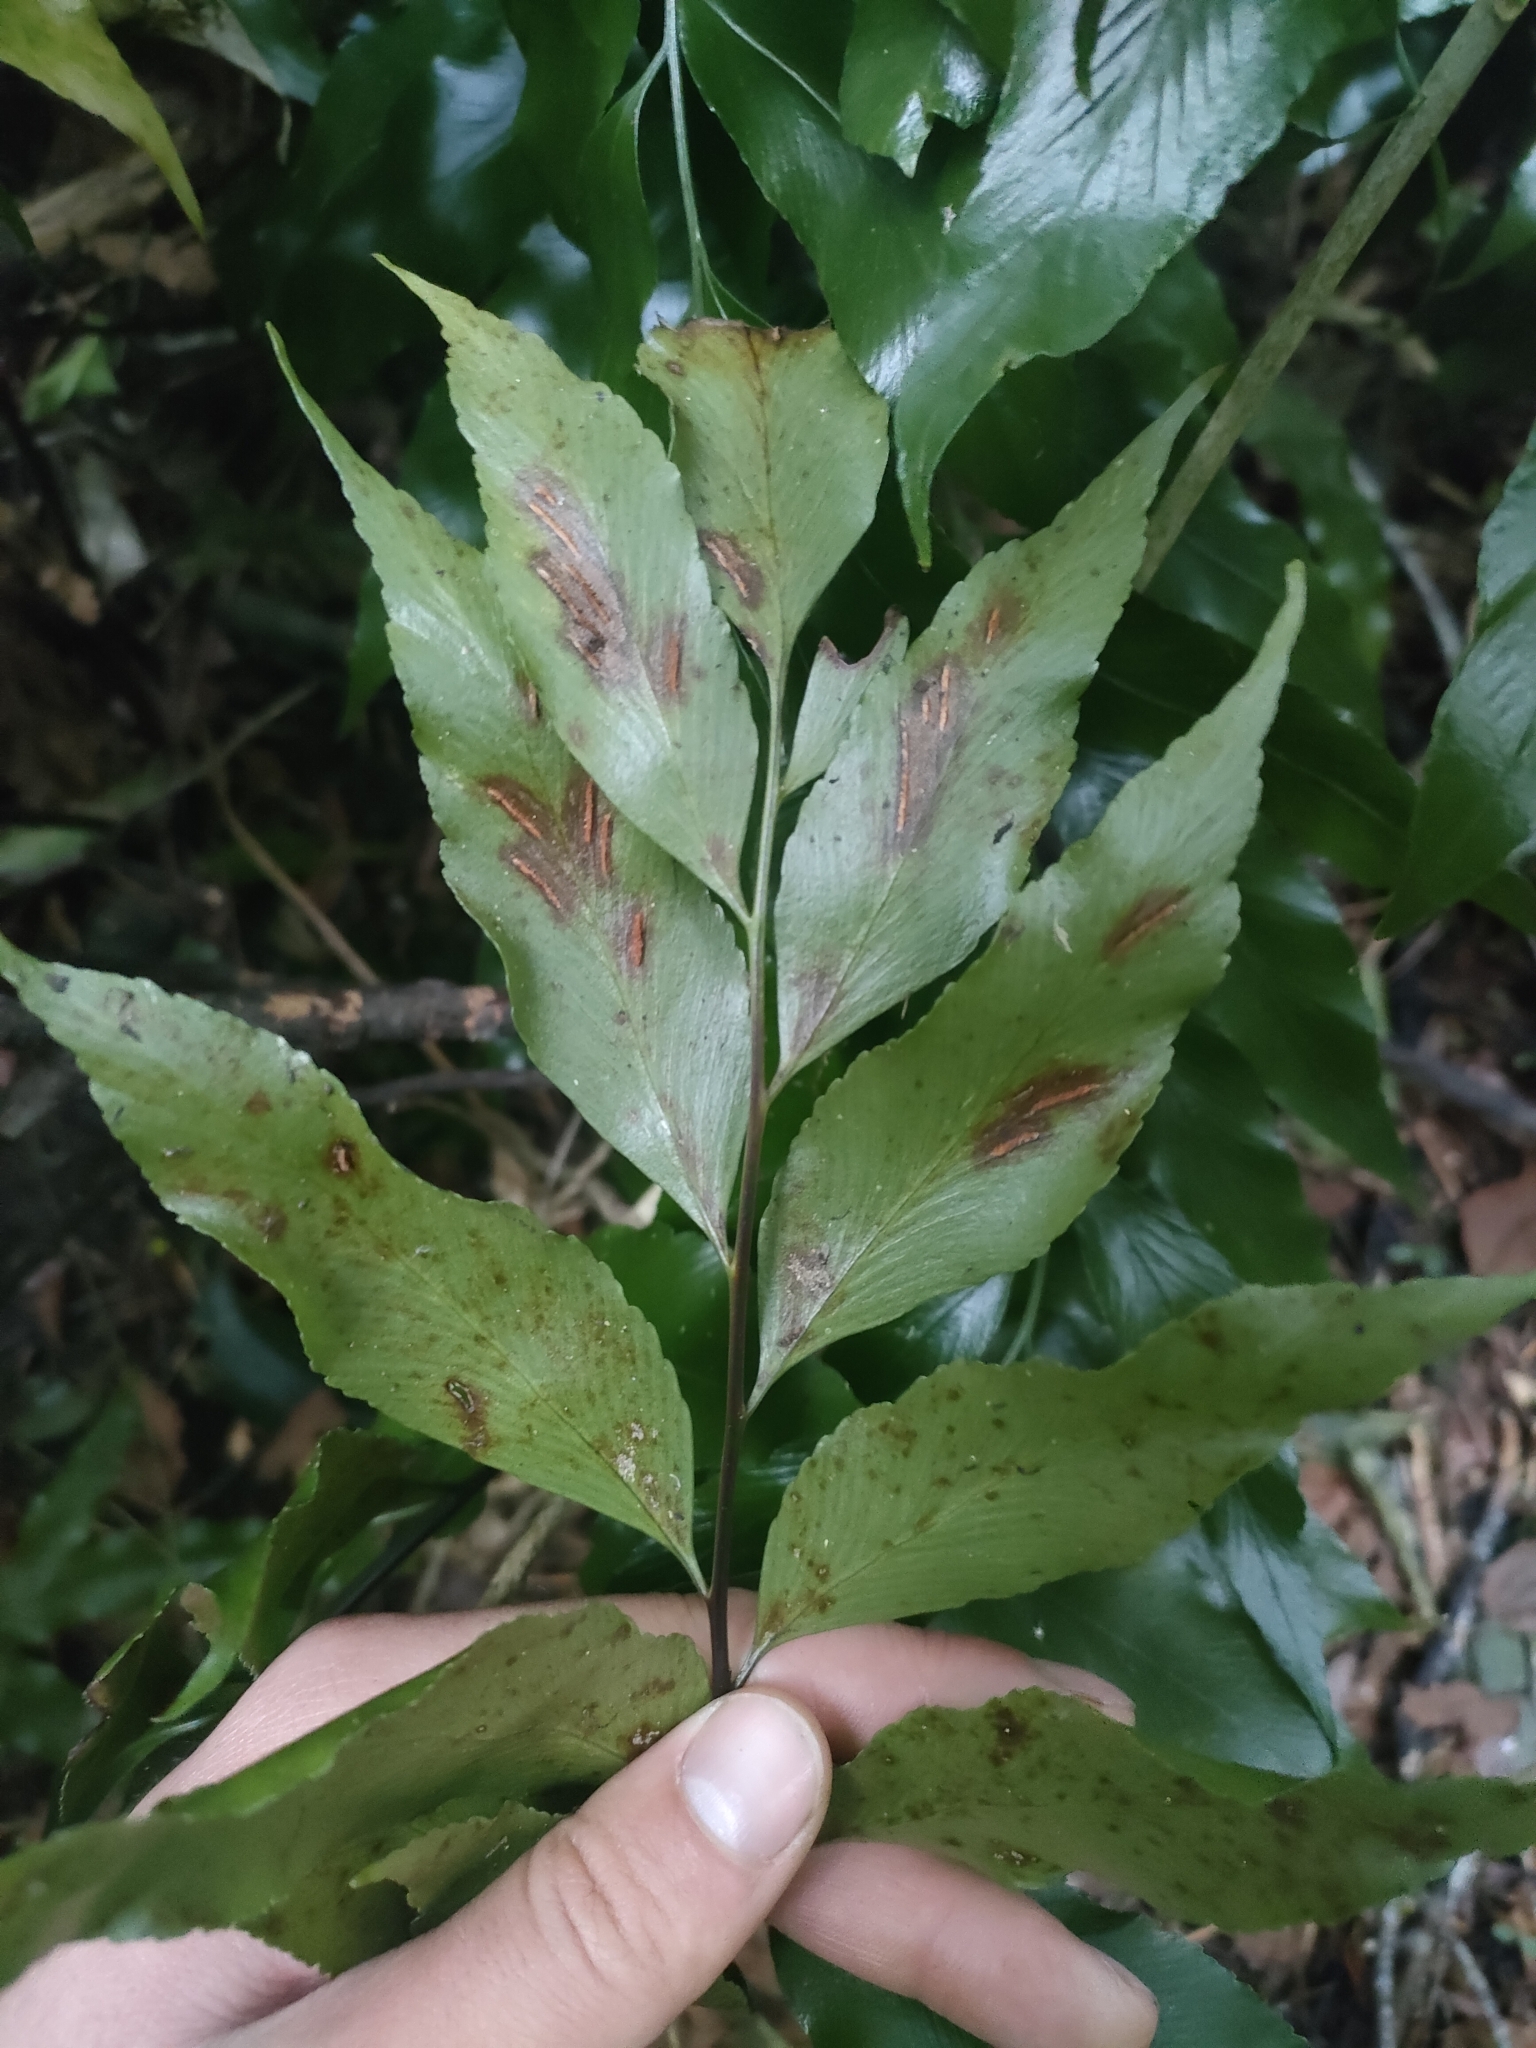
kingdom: Plantae
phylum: Tracheophyta
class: Polypodiopsida
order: Polypodiales
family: Aspleniaceae
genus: Asplenium
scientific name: Asplenium oblongifolium
